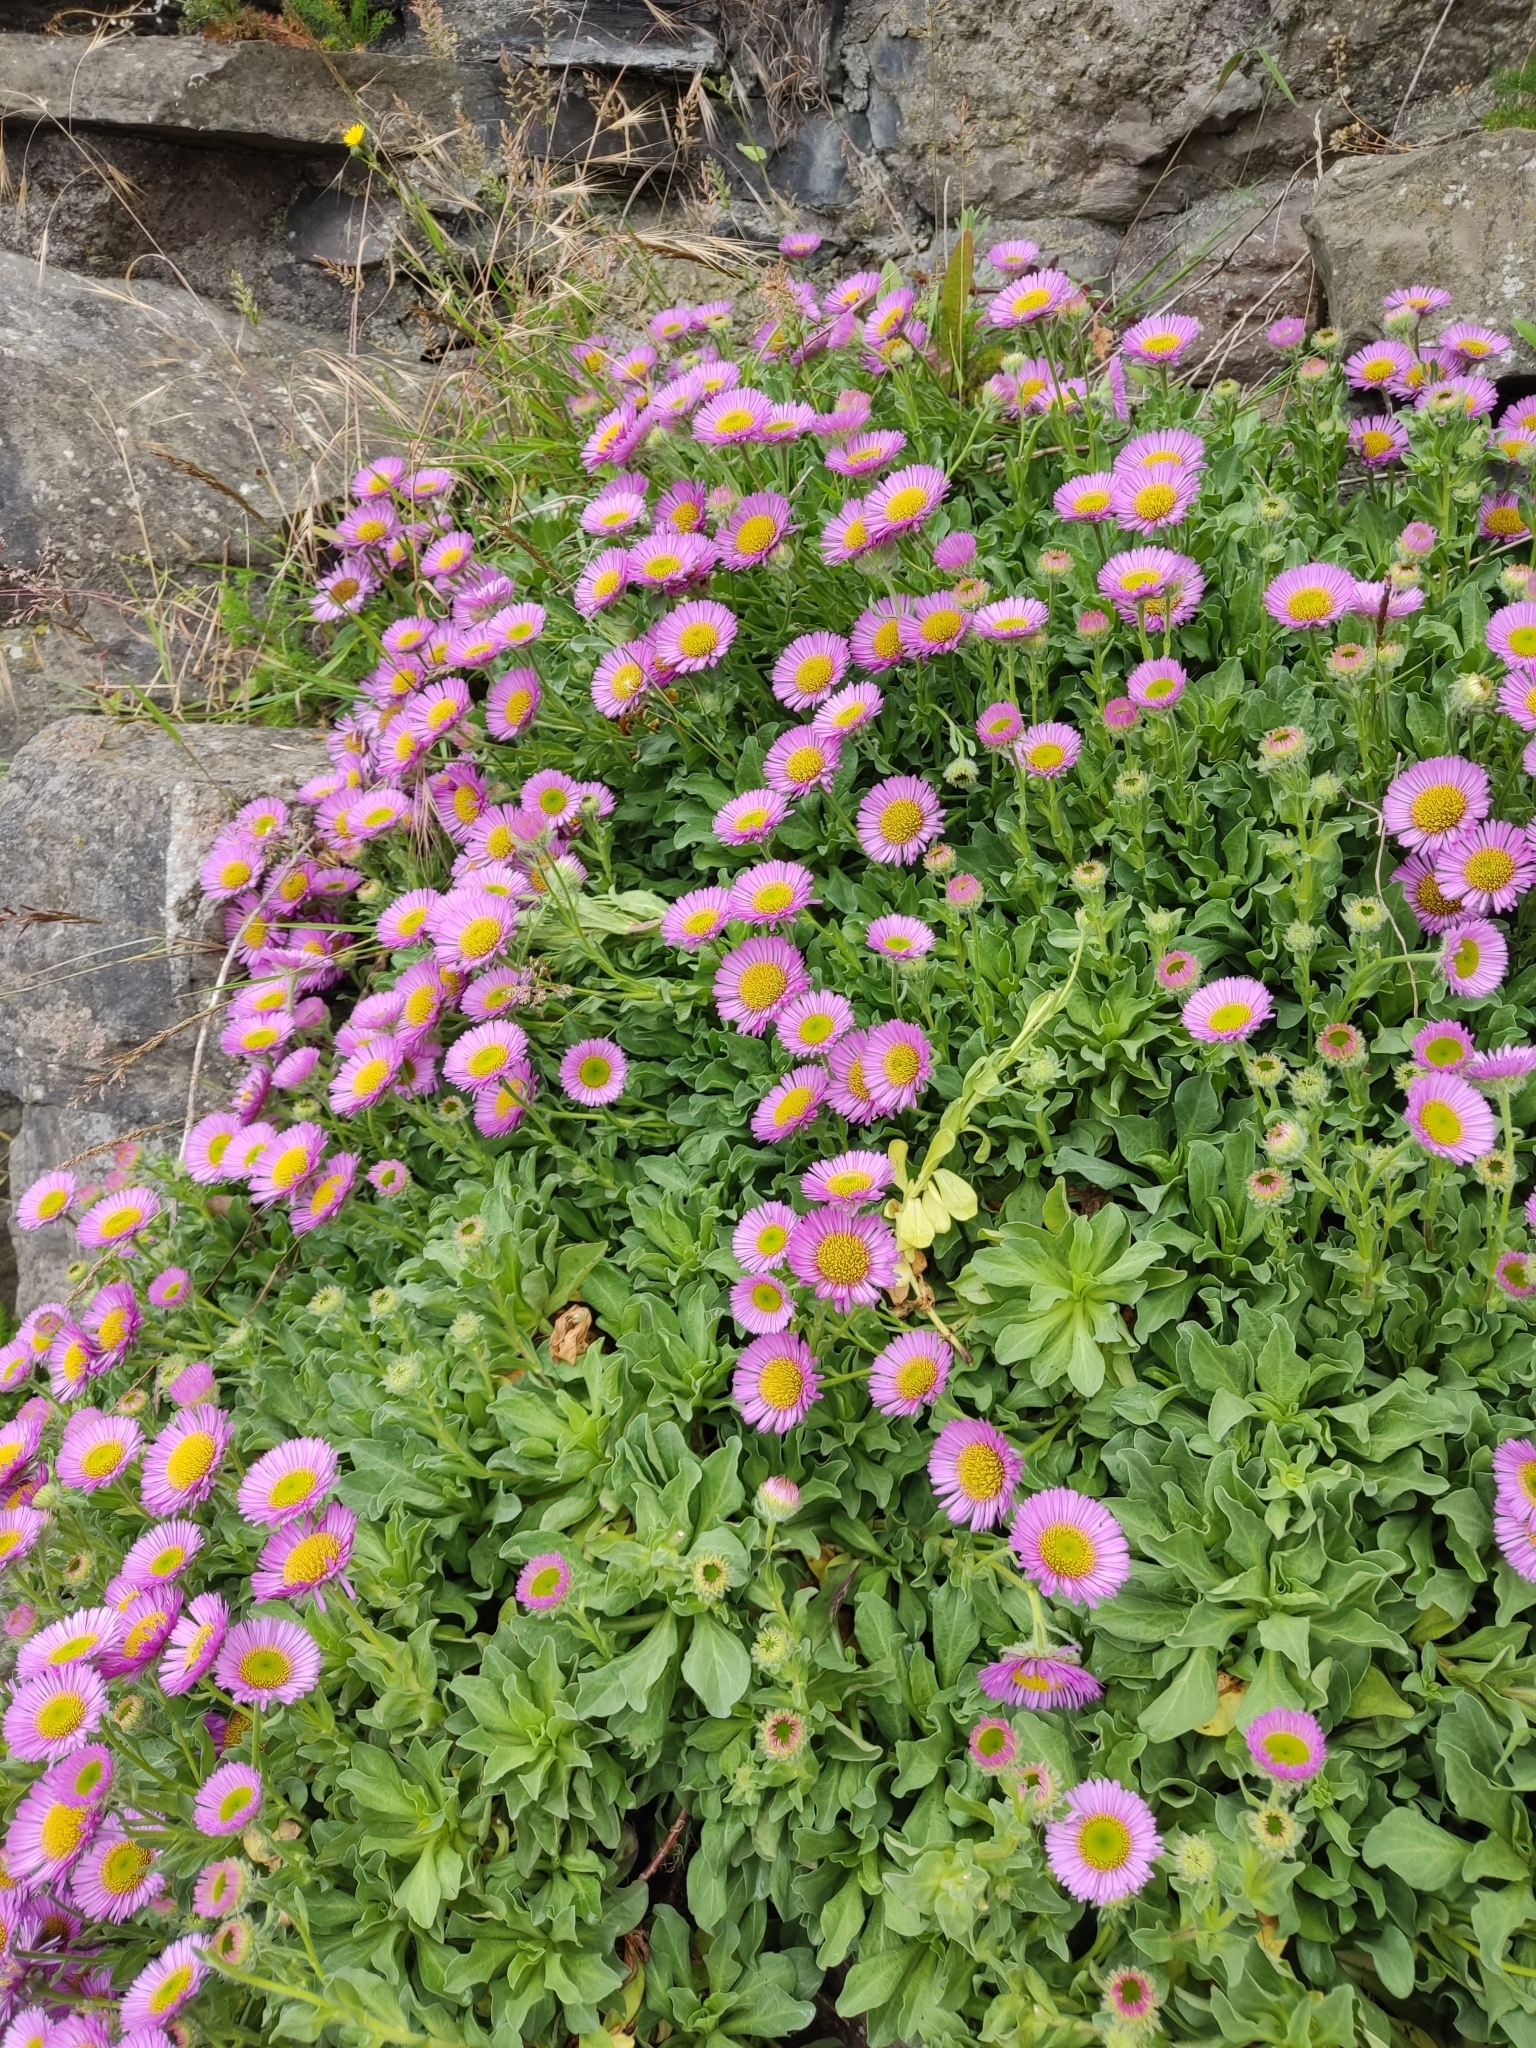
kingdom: Plantae
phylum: Tracheophyta
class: Magnoliopsida
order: Asterales
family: Asteraceae
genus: Erigeron
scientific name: Erigeron glaucus
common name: Seaside daisy
